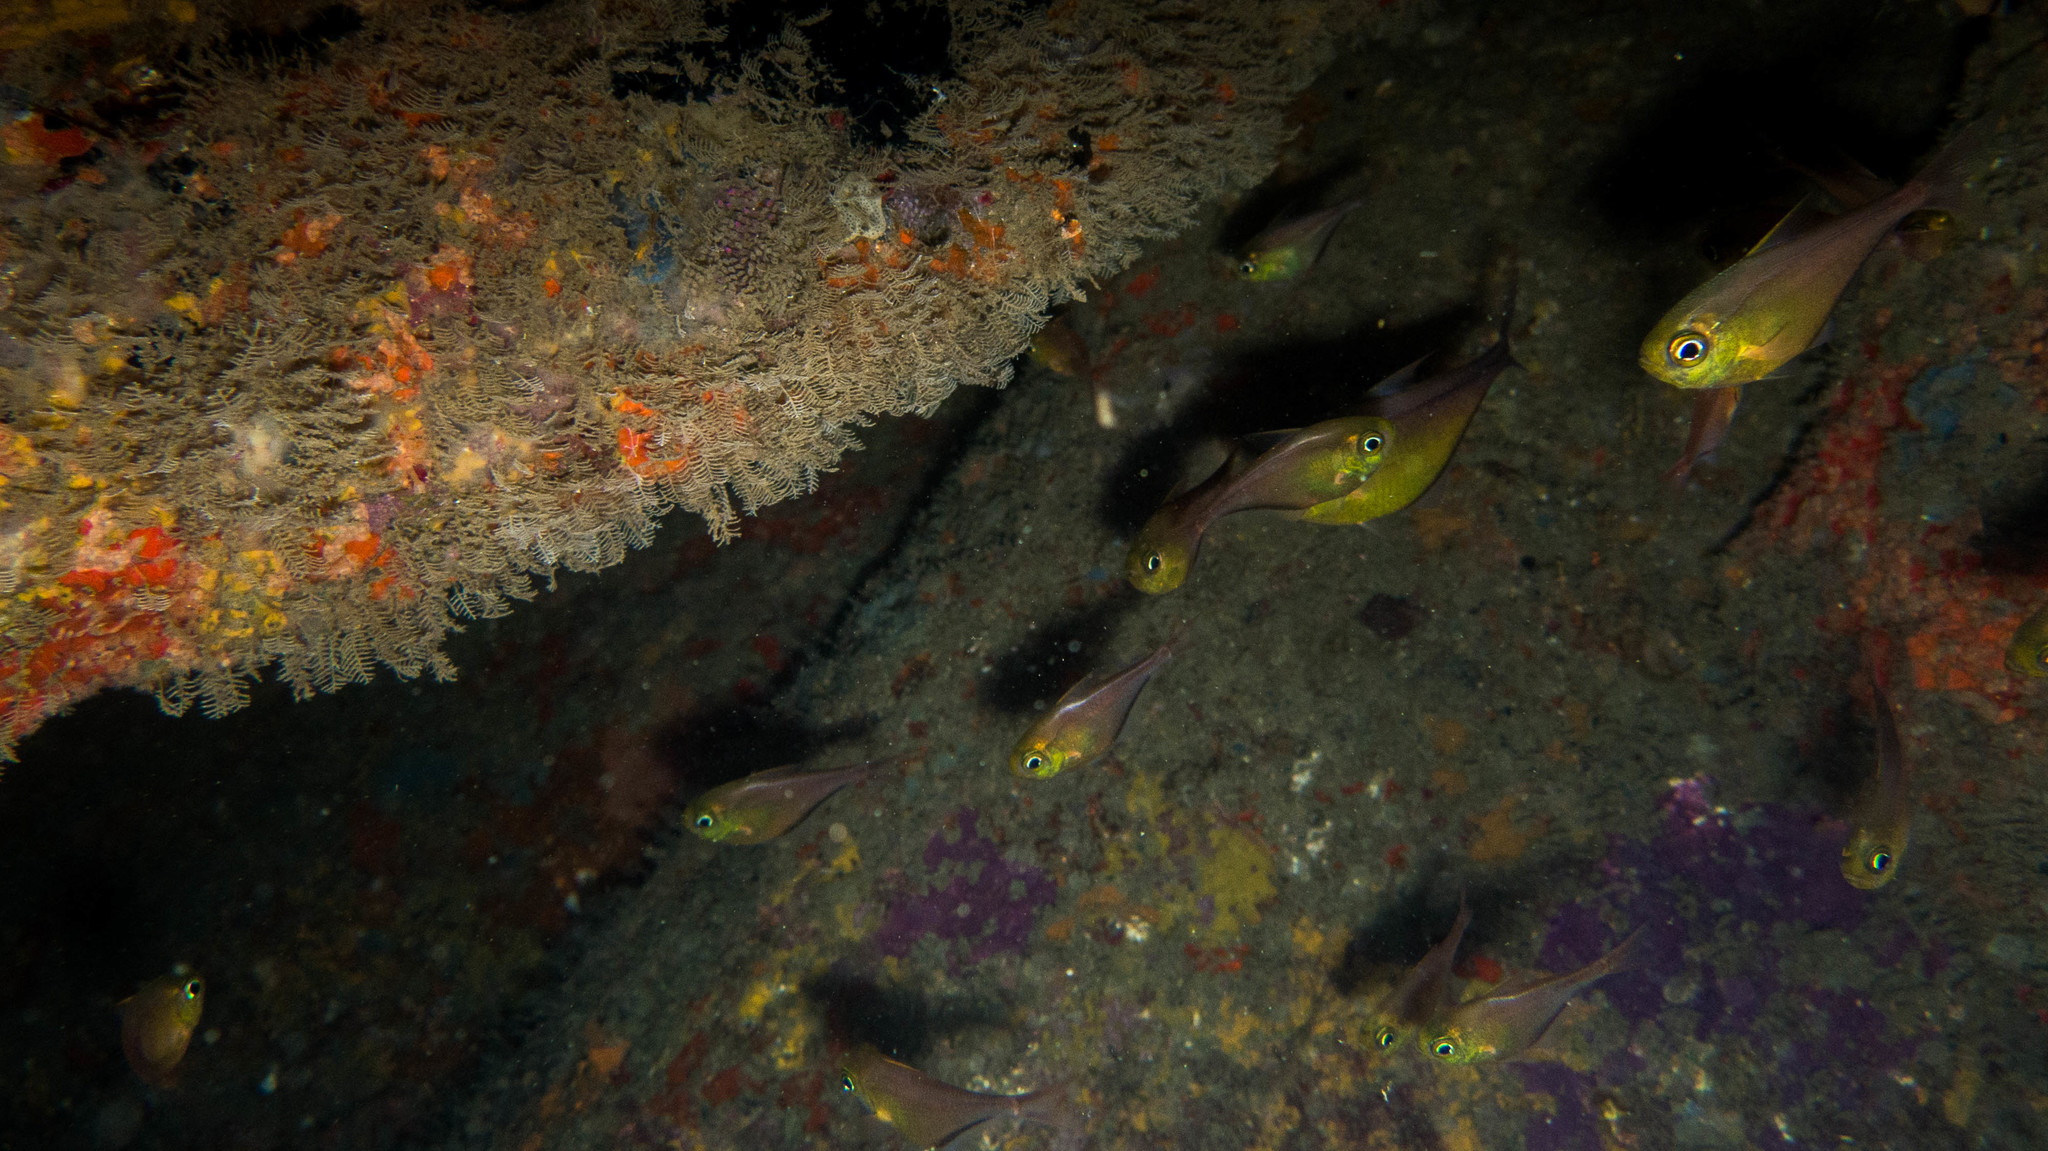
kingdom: Animalia
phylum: Chordata
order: Perciformes
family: Pempheridae
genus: Pempheris
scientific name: Pempheris schomburgkii
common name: Glassy sweeper
